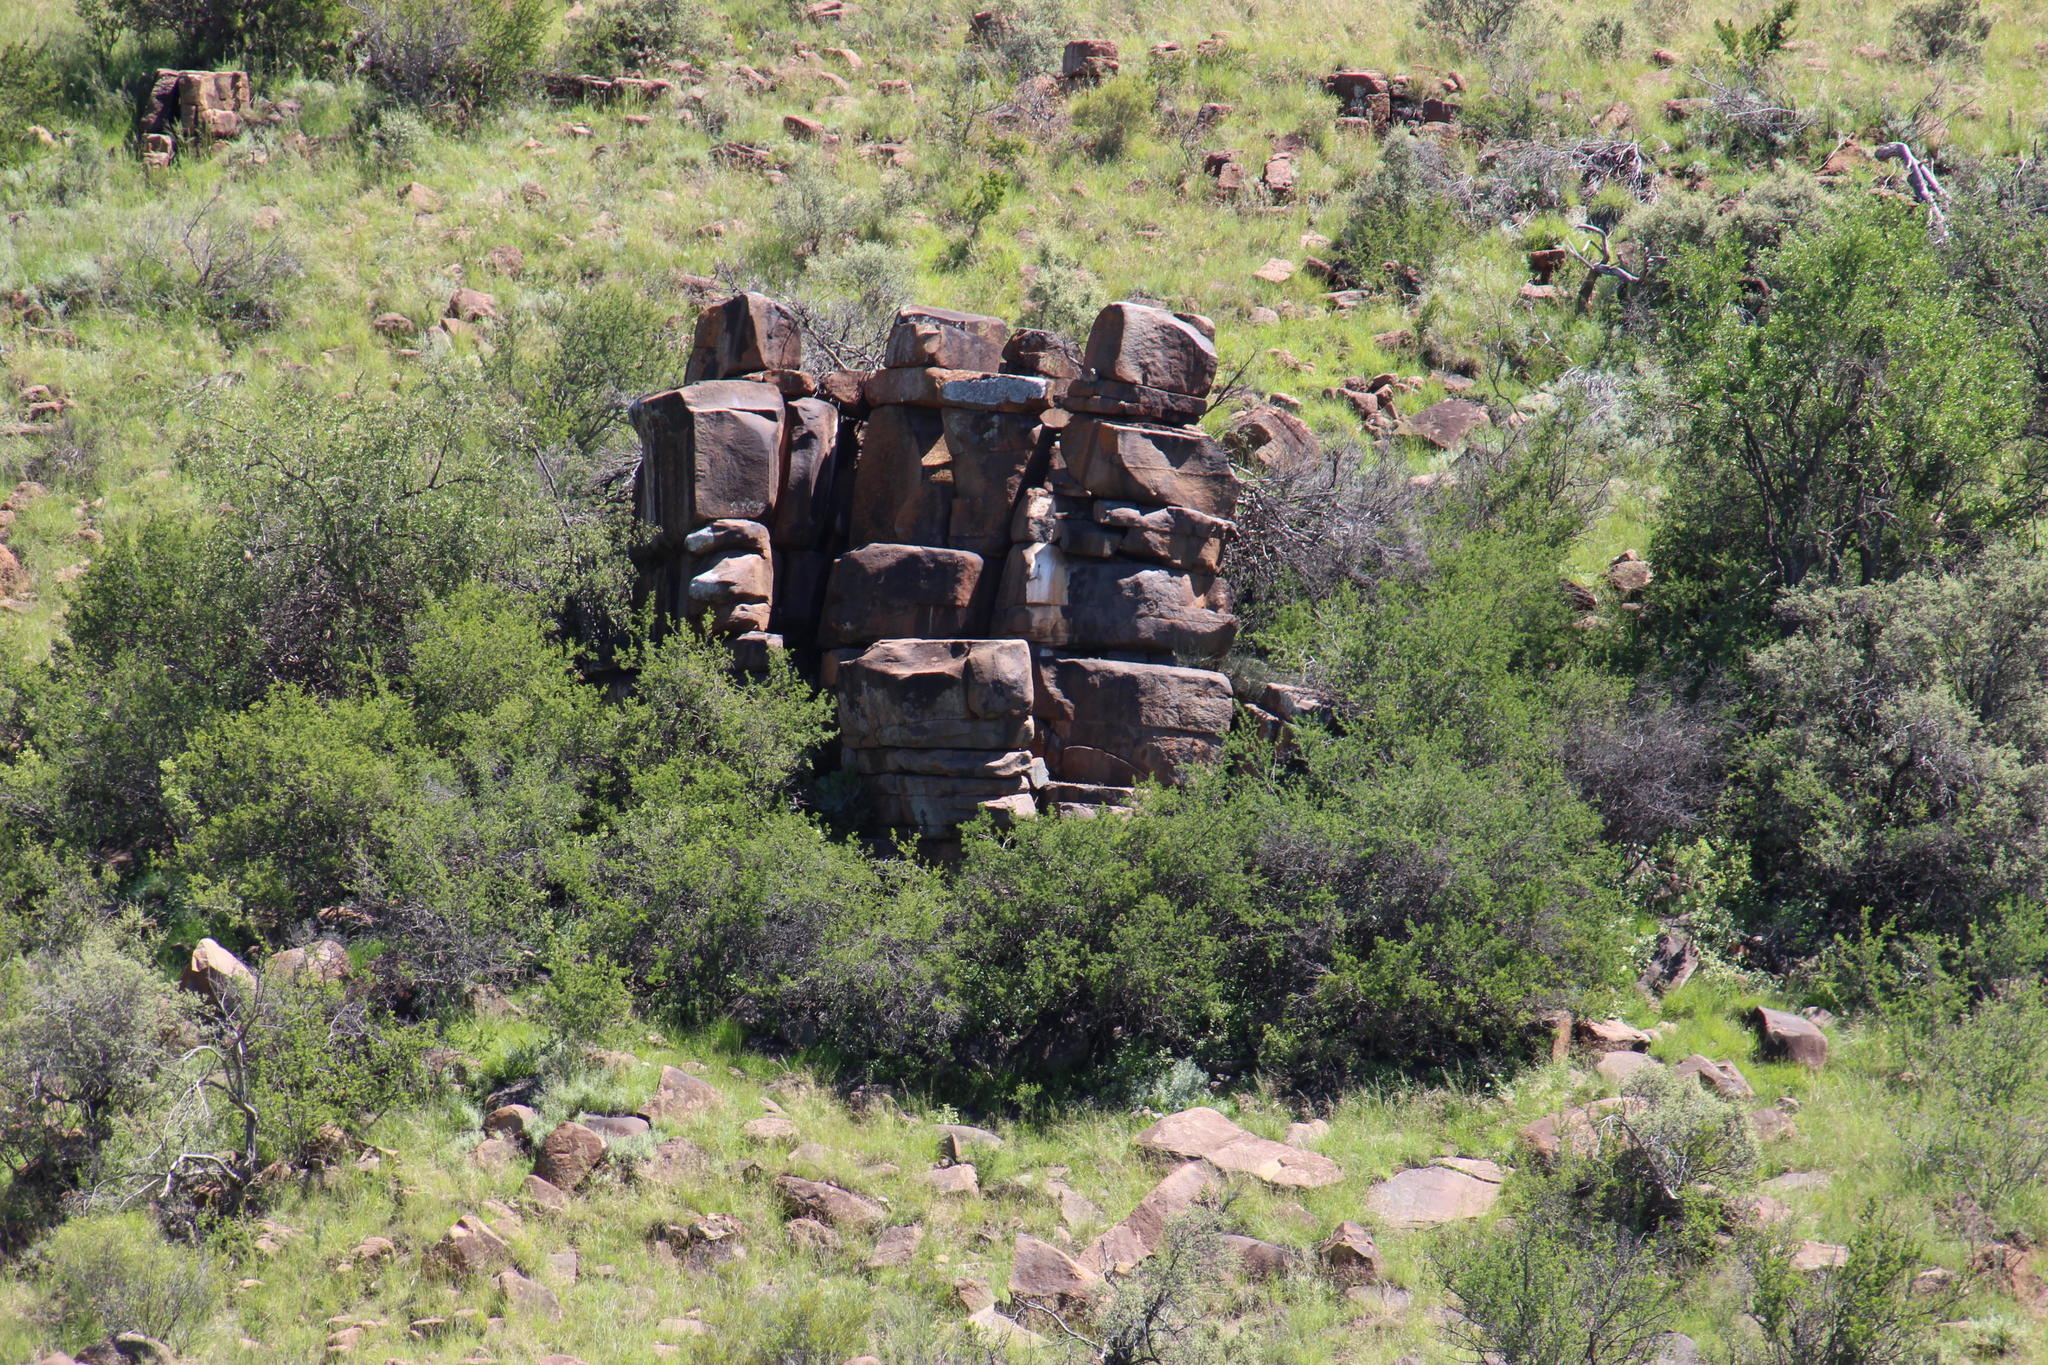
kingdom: Animalia
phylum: Chordata
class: Mammalia
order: Hyracoidea
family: Procaviidae
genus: Procavia
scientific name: Procavia capensis
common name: Rock hyrax
